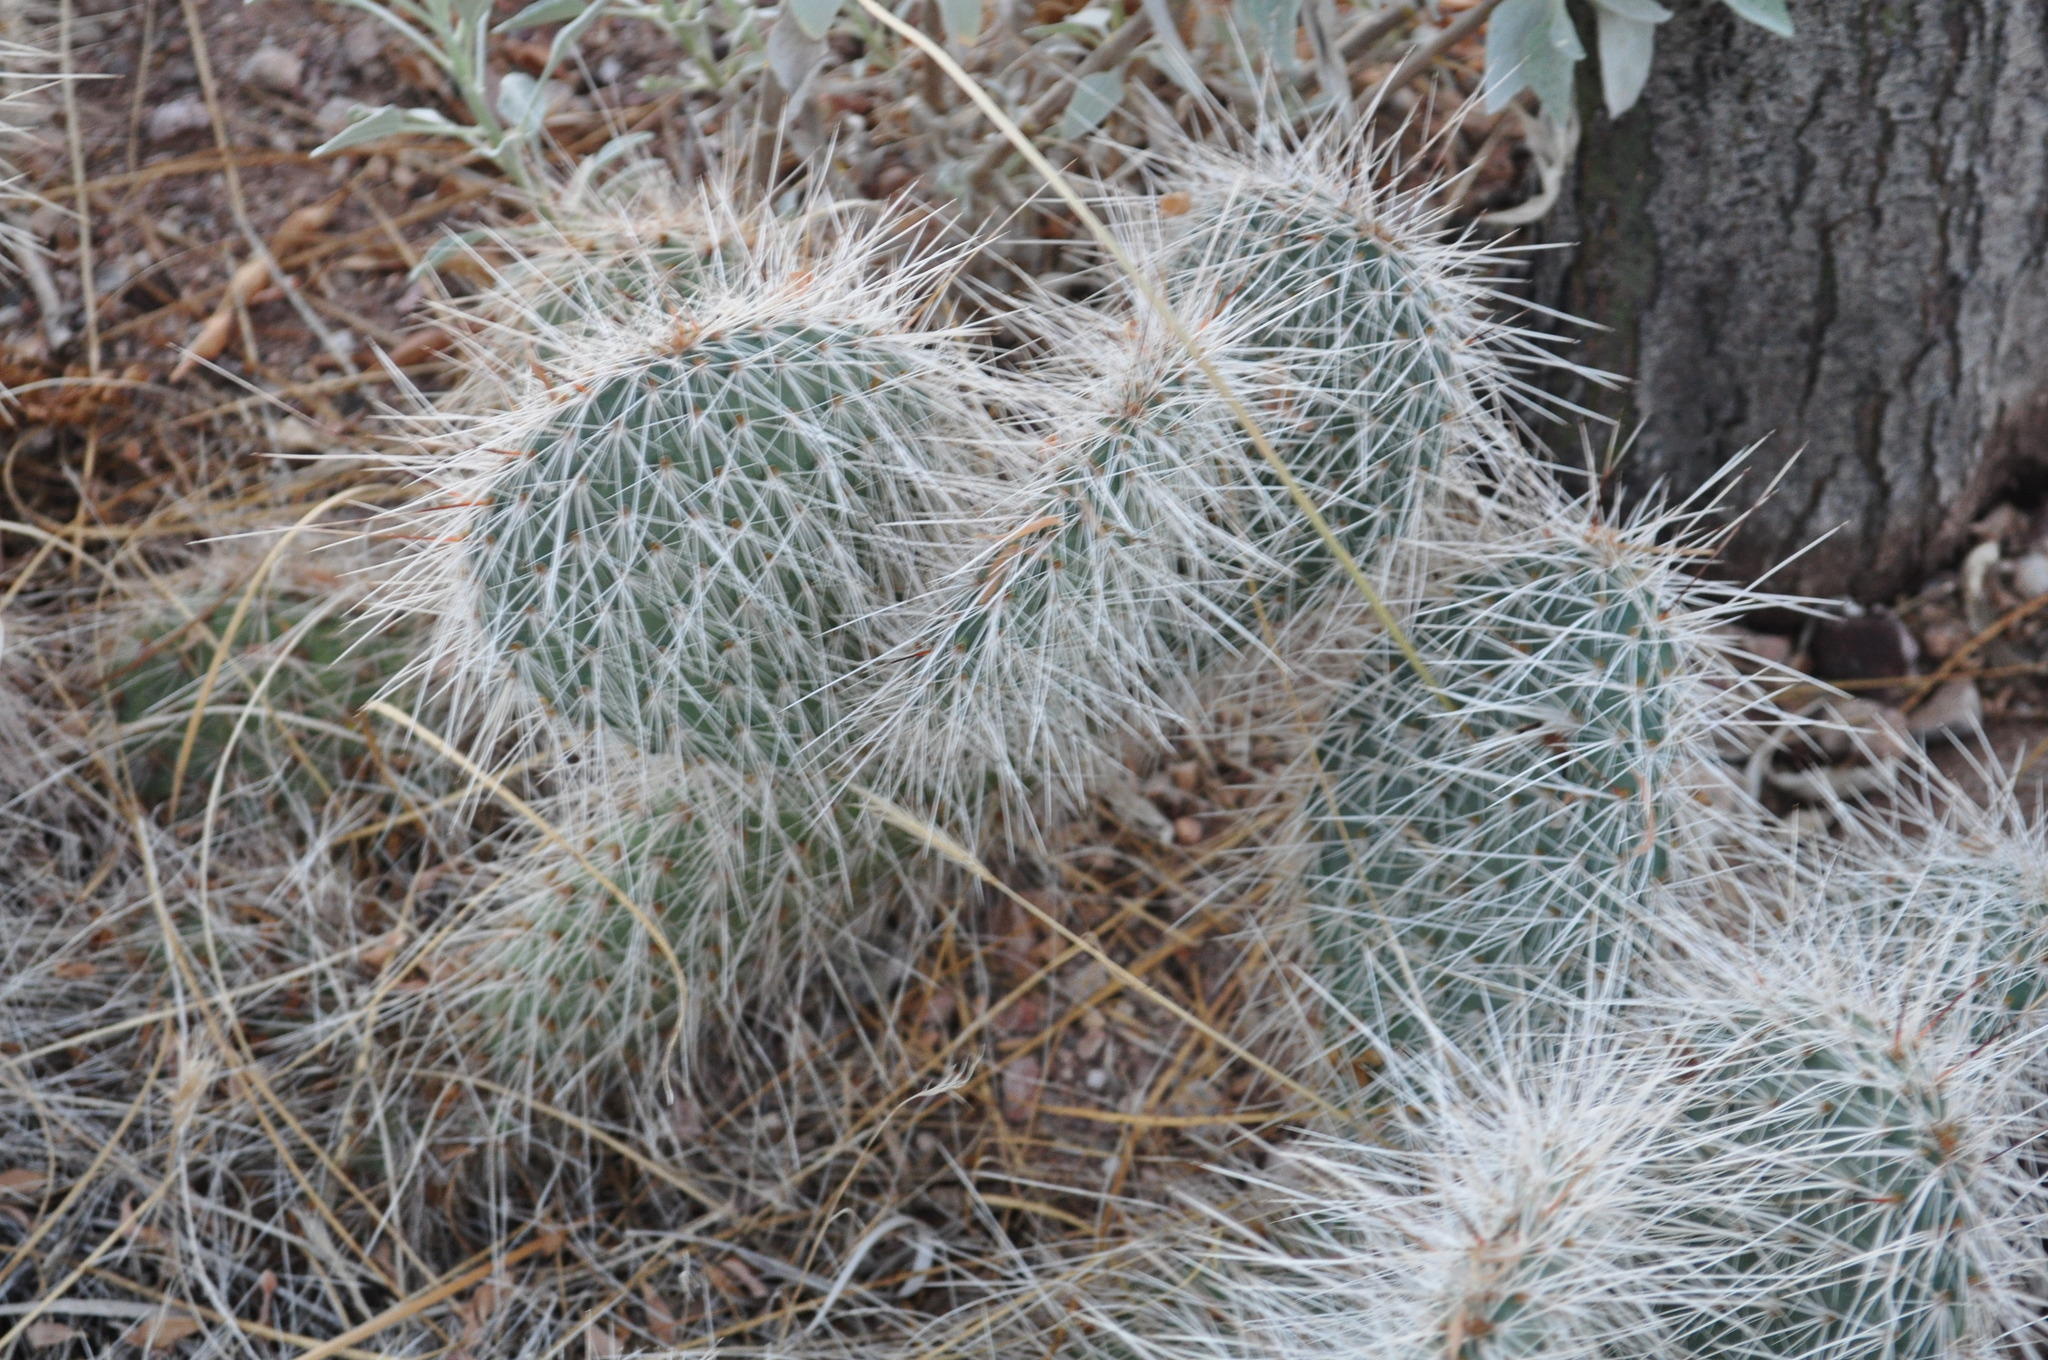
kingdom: Plantae
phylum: Tracheophyta
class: Magnoliopsida
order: Caryophyllales
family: Cactaceae
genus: Opuntia
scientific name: Opuntia polyacantha
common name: Plains prickly-pear
